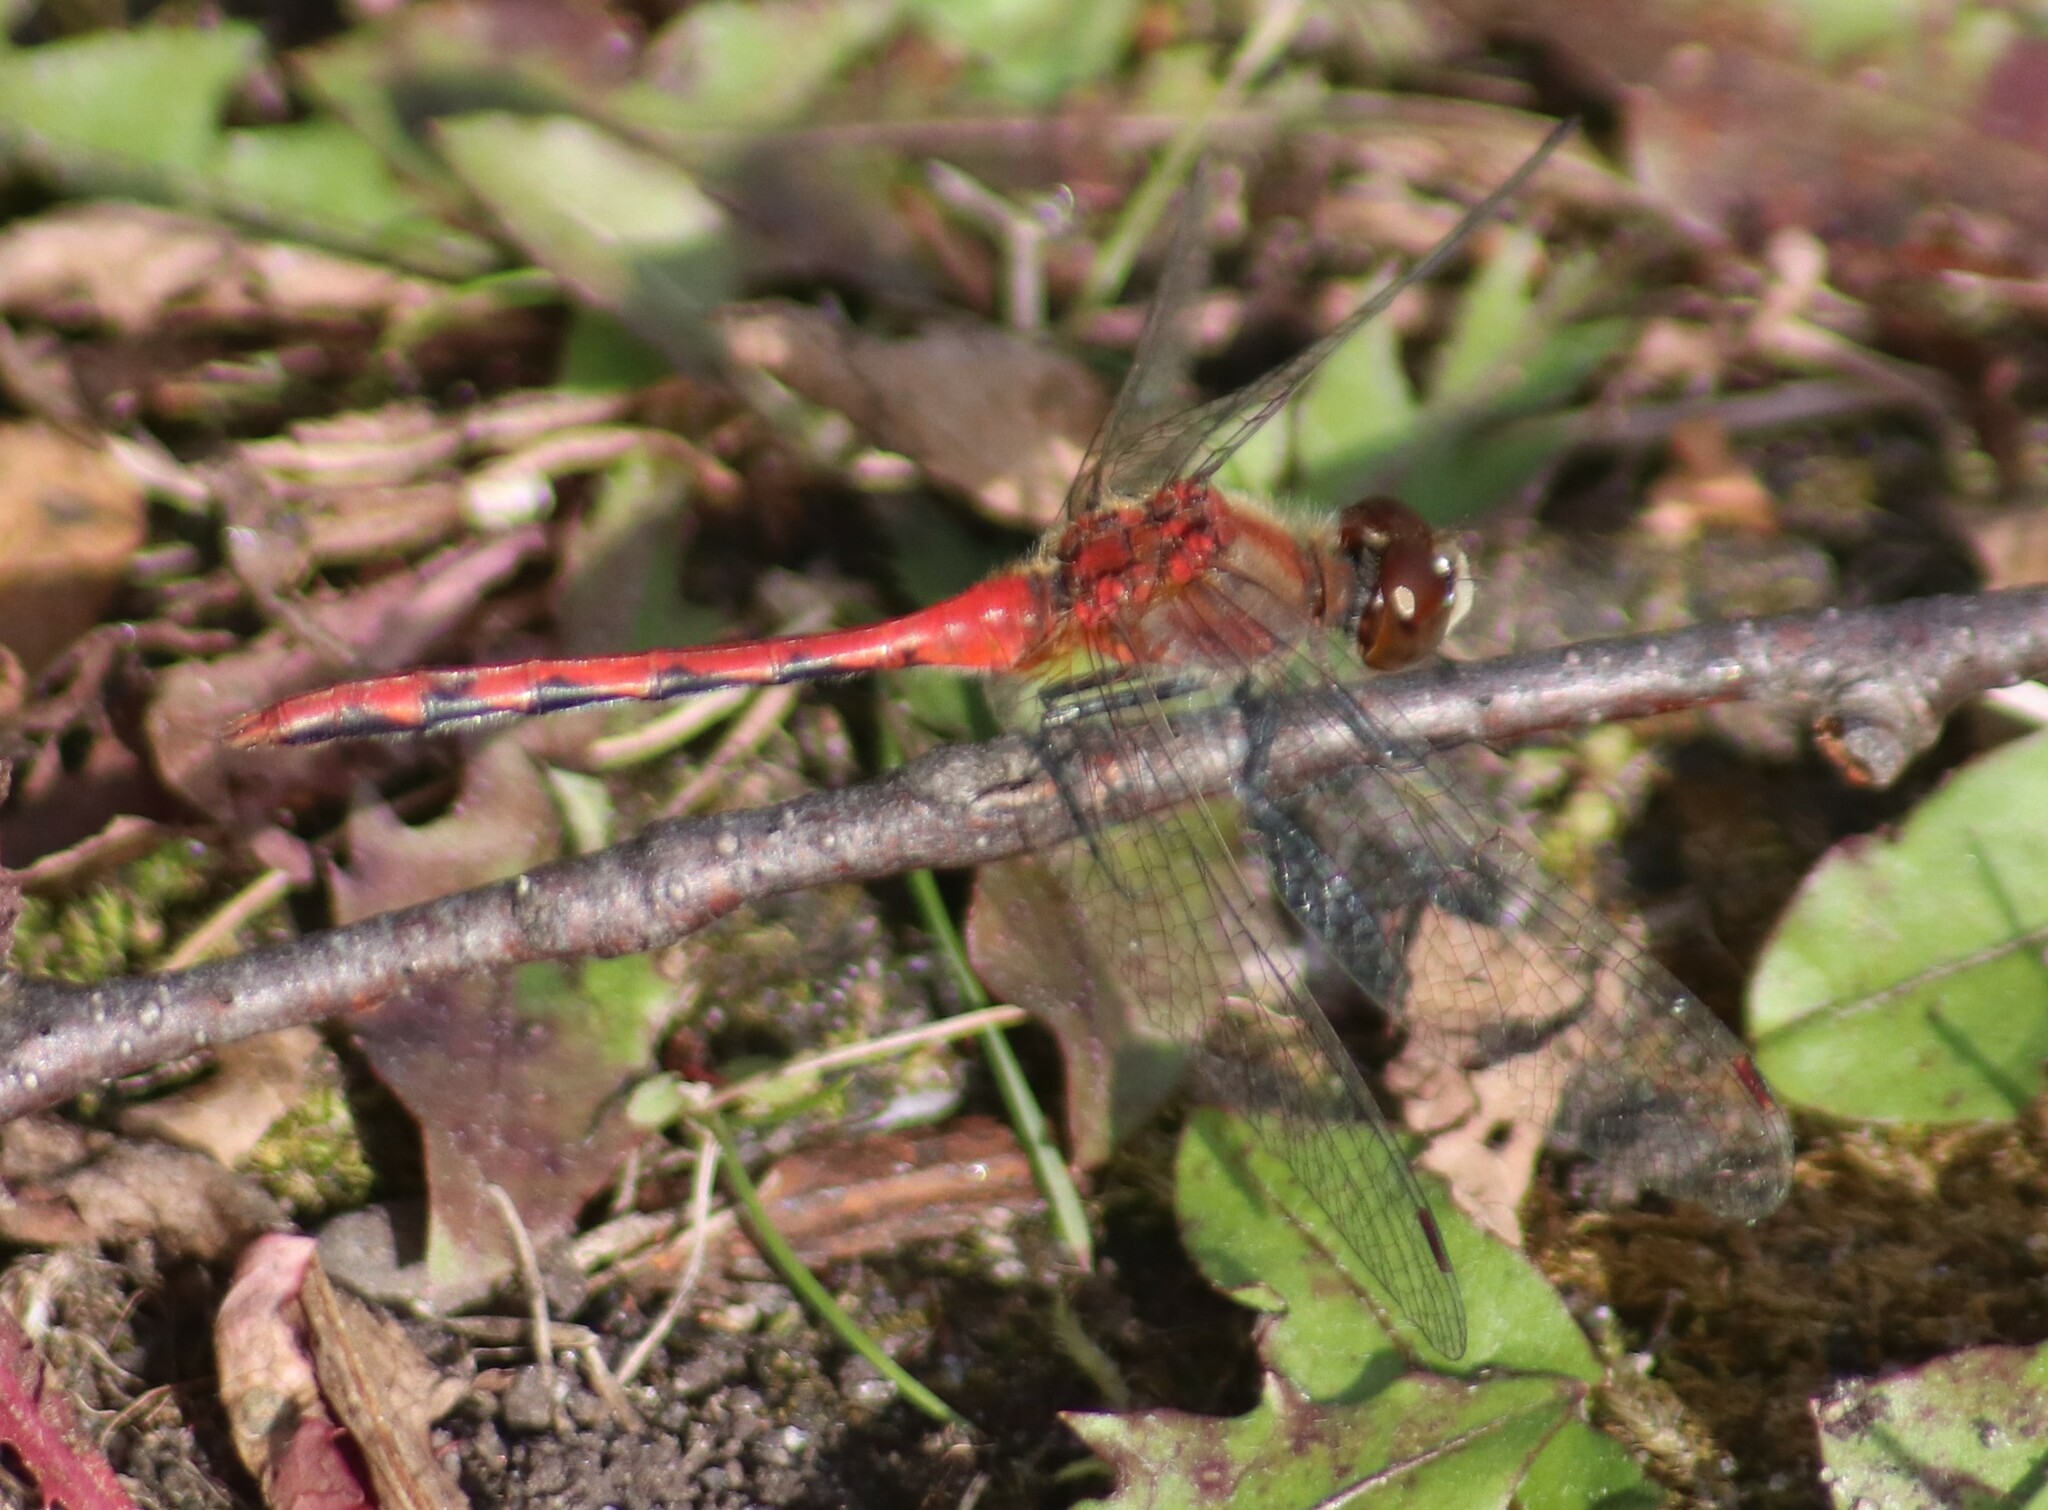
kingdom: Animalia
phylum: Arthropoda
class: Insecta
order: Odonata
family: Libellulidae
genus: Sympetrum
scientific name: Sympetrum obtrusum
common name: White-faced meadowhawk
